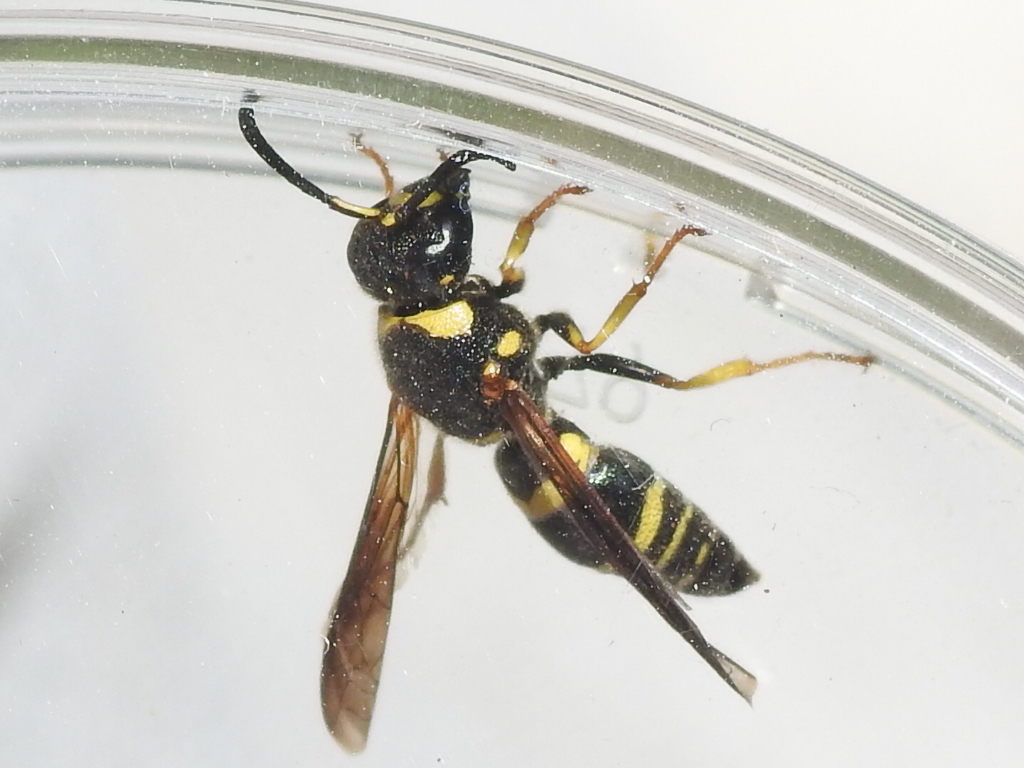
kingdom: Animalia
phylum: Arthropoda
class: Insecta
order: Hymenoptera
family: Eumenidae
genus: Euodynerus
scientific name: Euodynerus foraminatus
